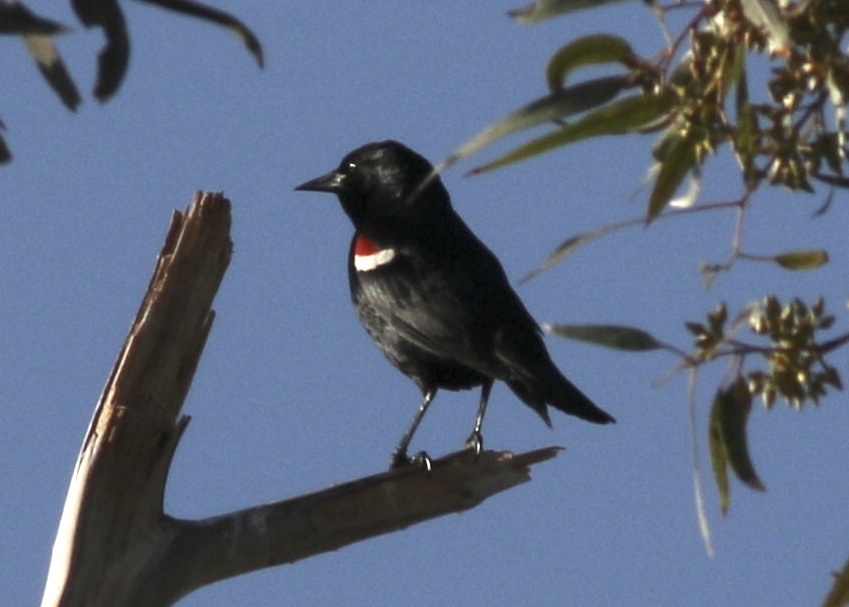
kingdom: Animalia
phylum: Chordata
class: Aves
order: Passeriformes
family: Icteridae
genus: Agelaius
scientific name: Agelaius tricolor
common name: Tricolored blackbird
